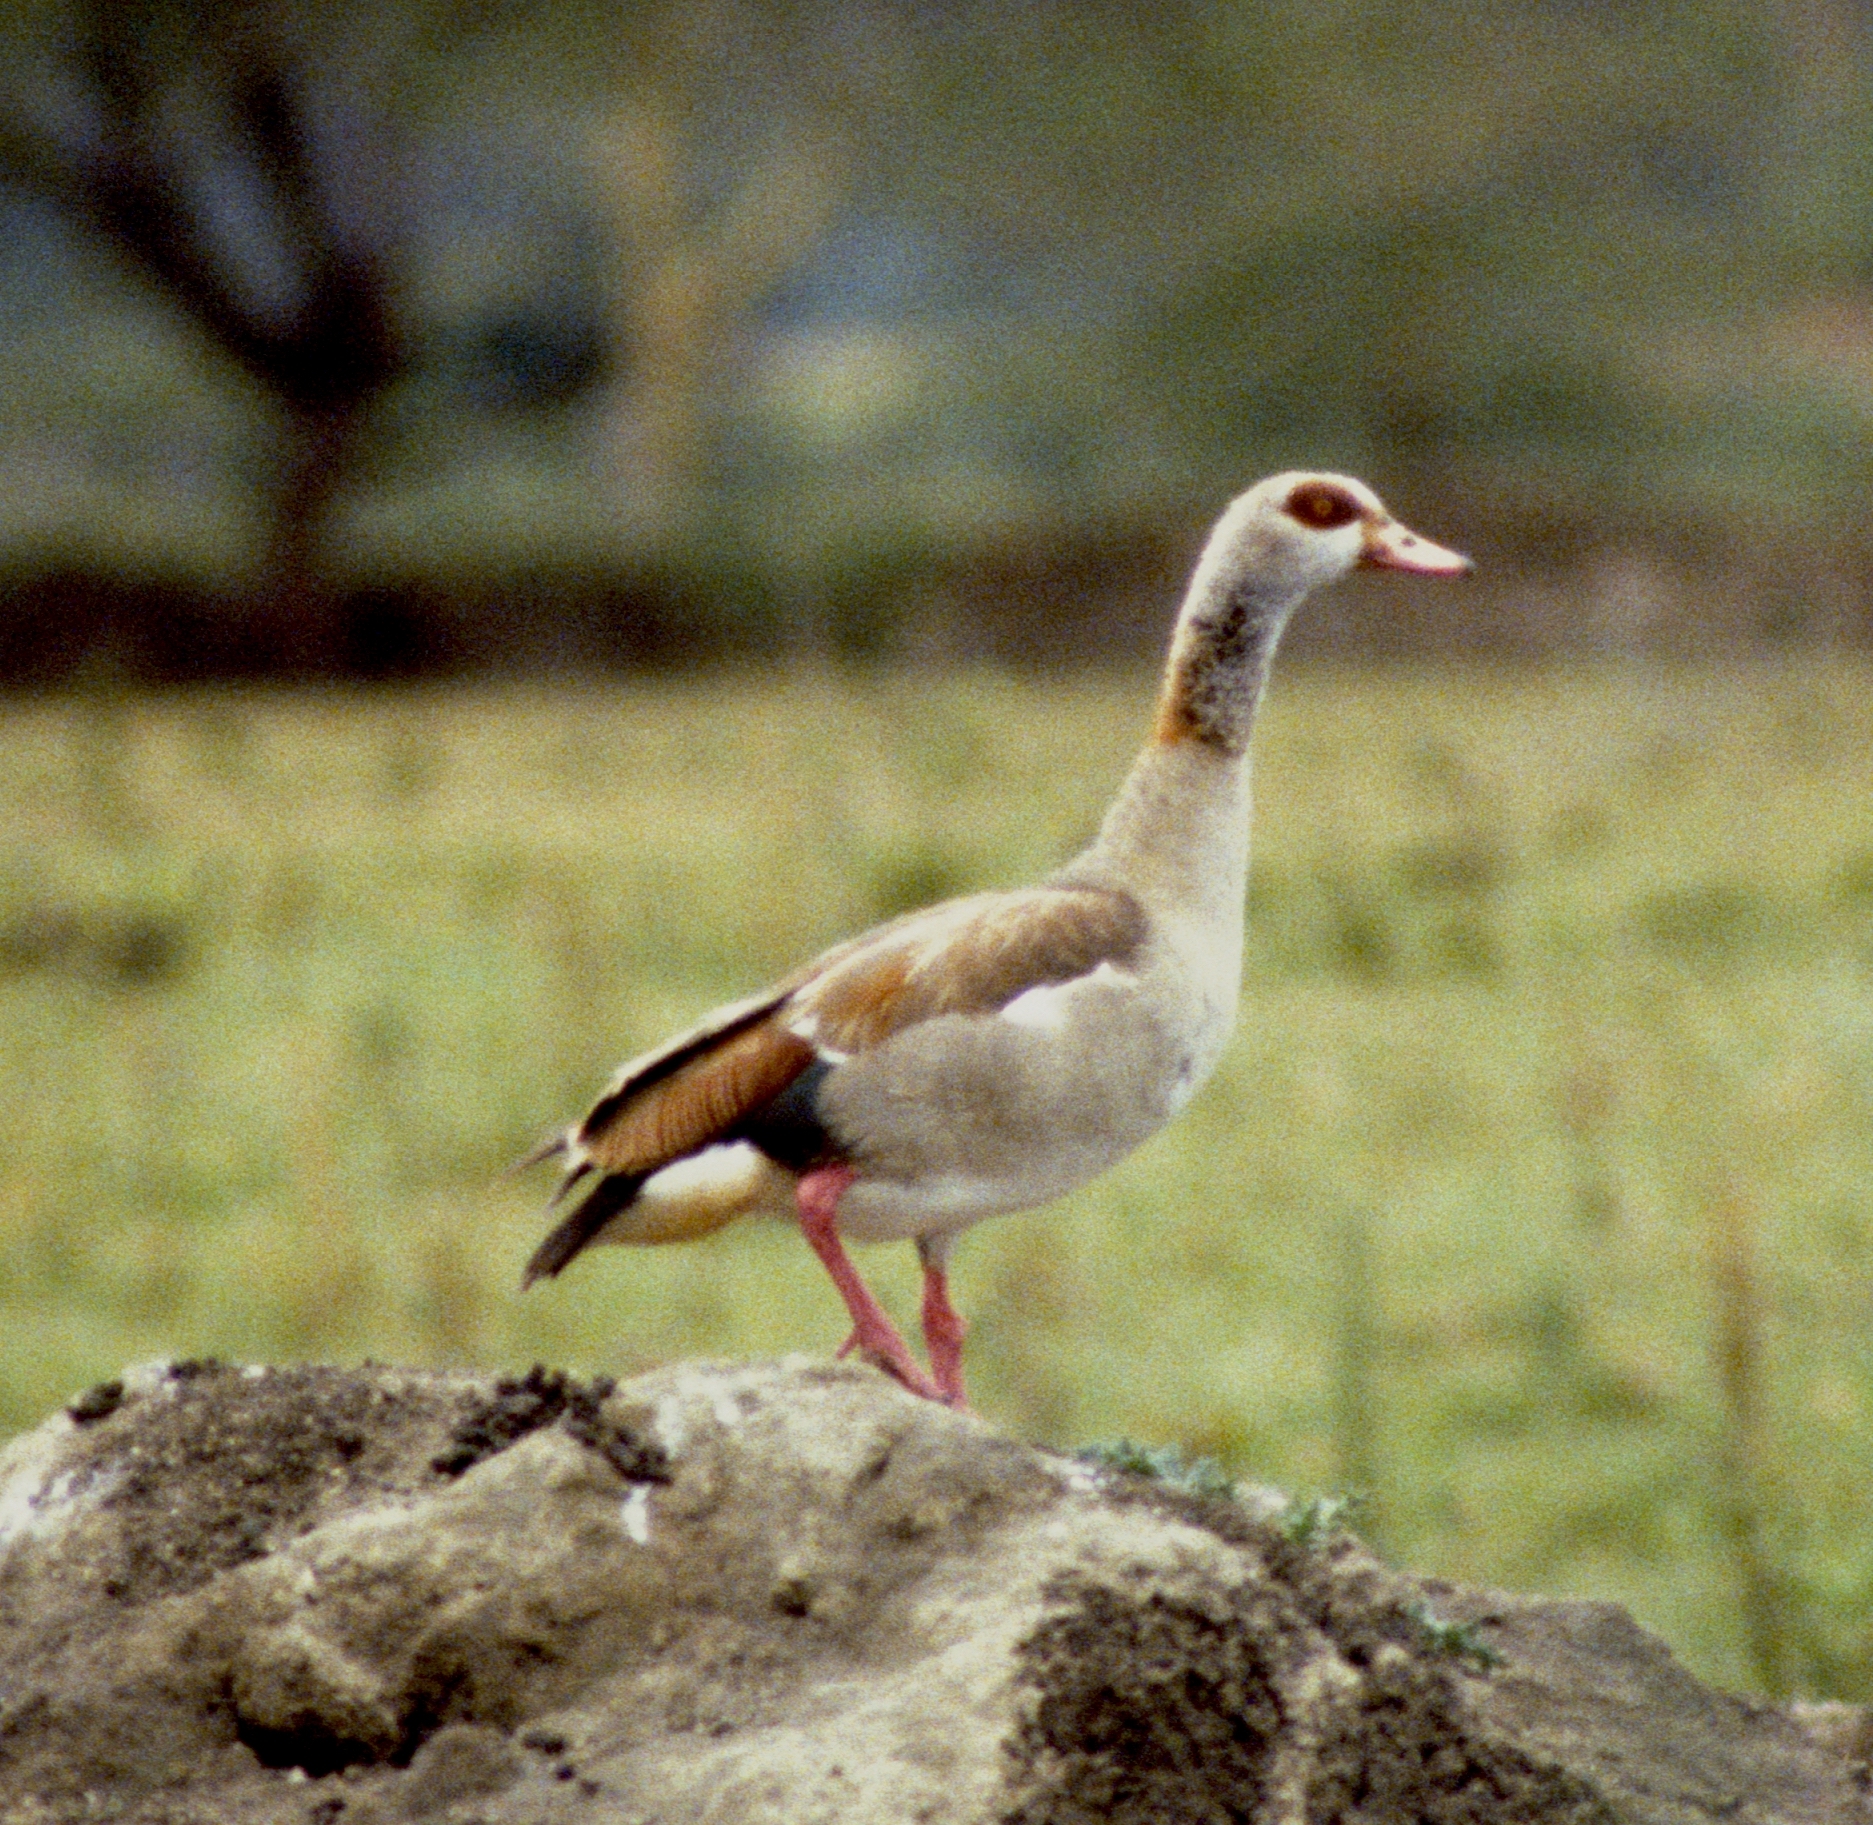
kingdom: Animalia
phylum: Chordata
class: Aves
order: Anseriformes
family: Anatidae
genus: Alopochen
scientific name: Alopochen aegyptiaca
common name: Egyptian goose
